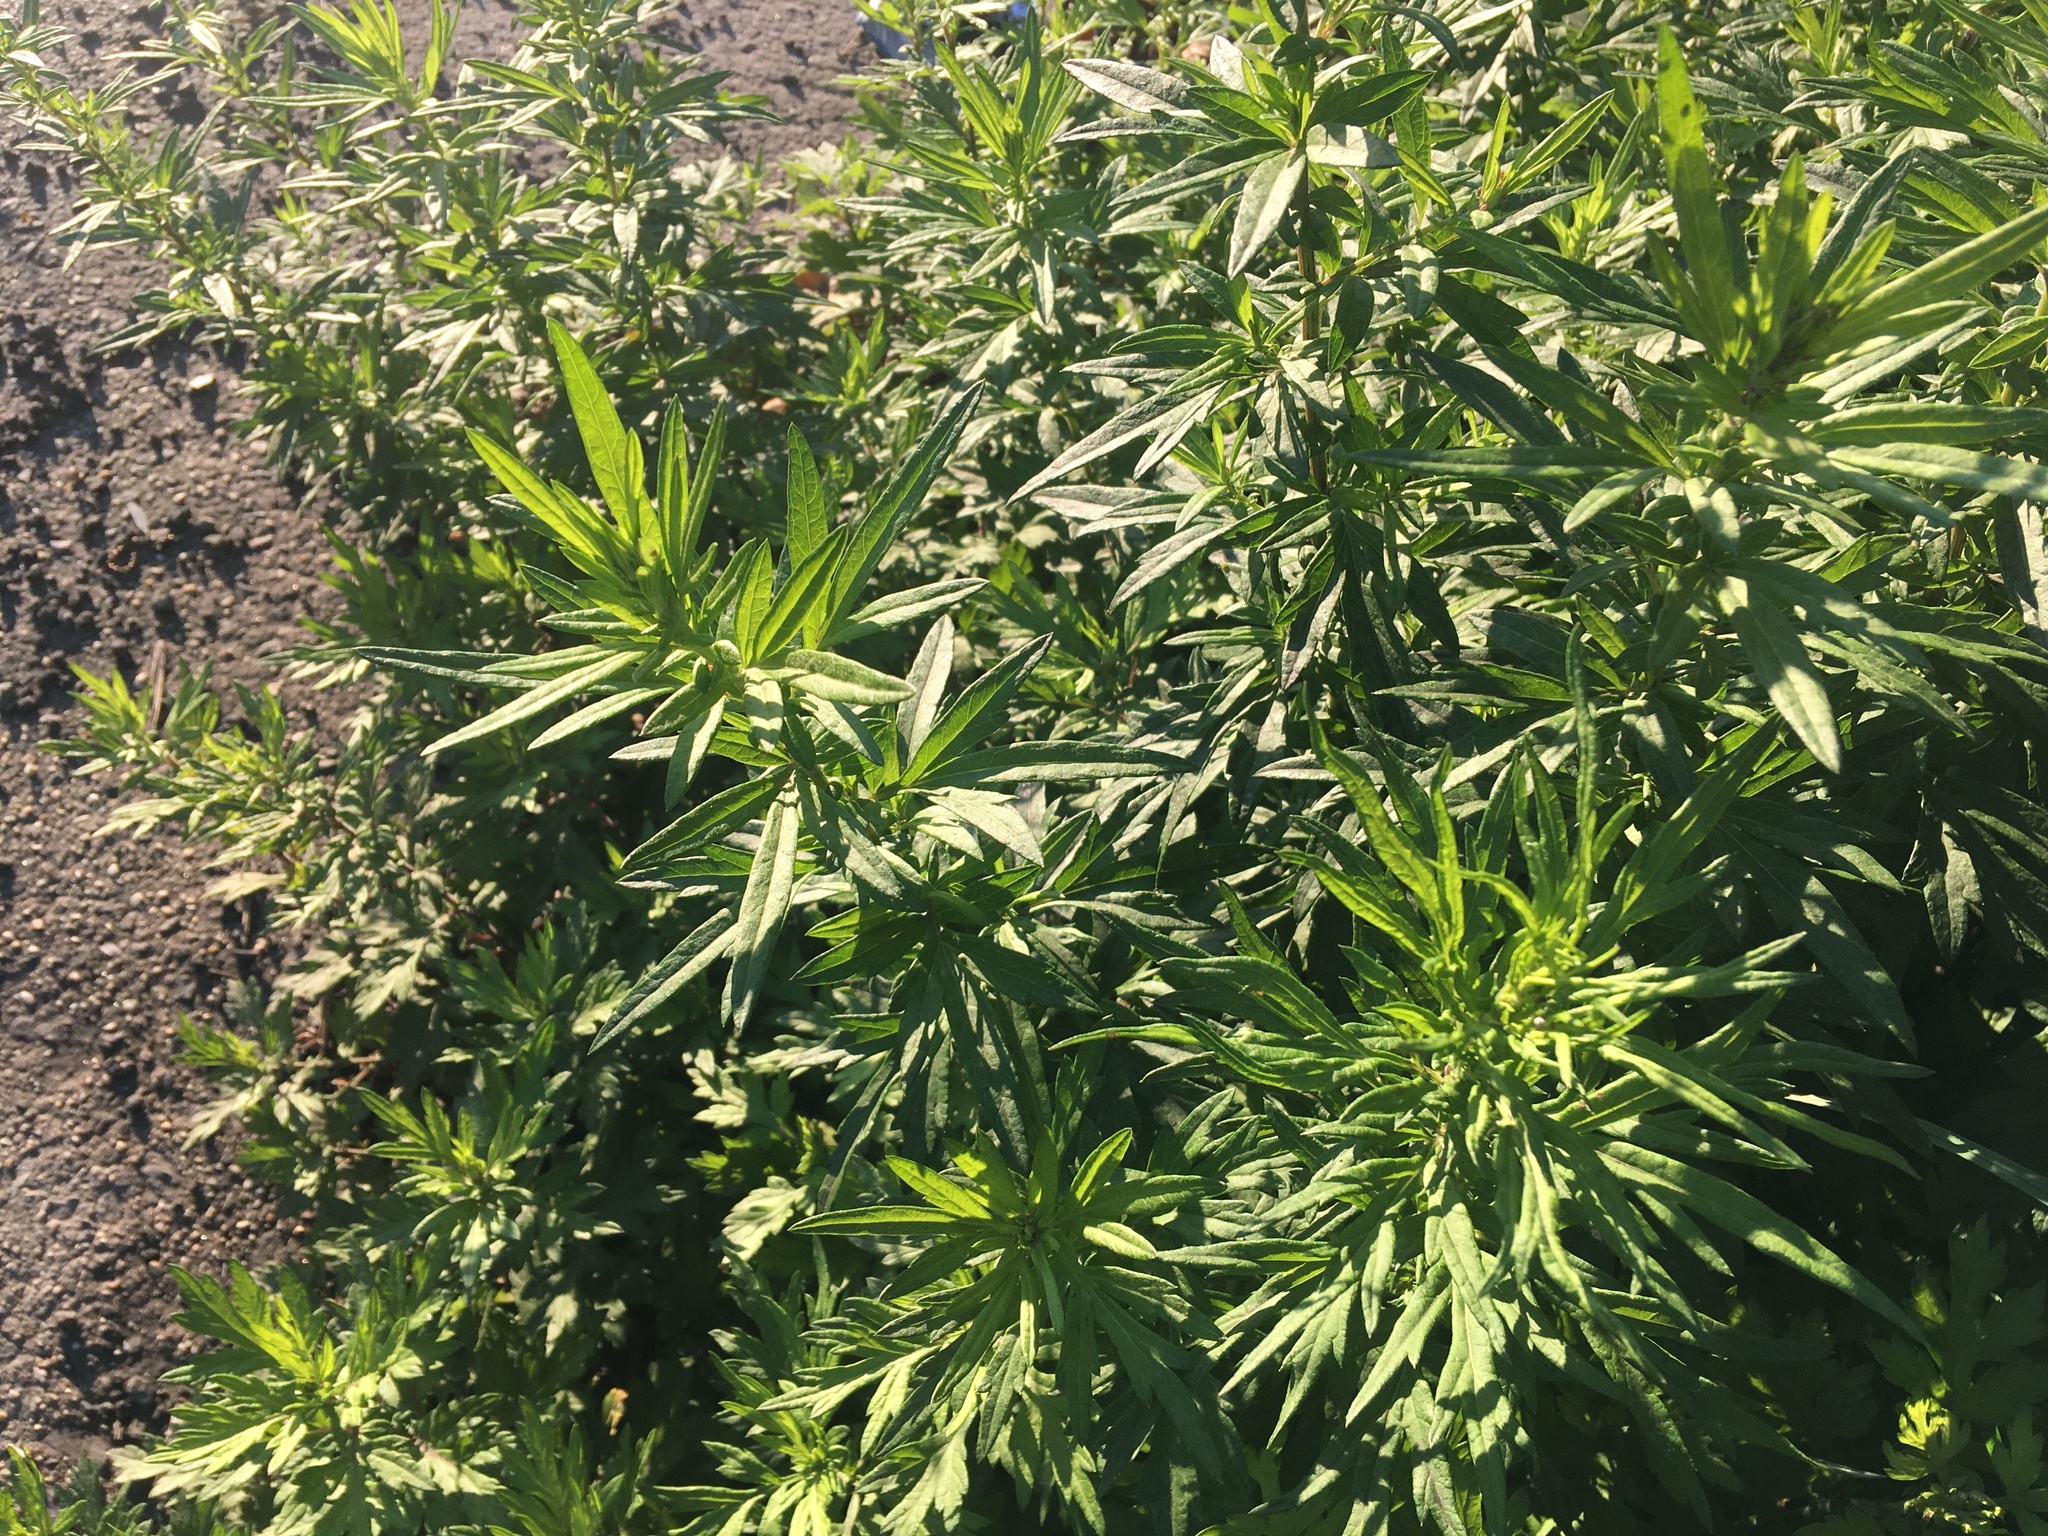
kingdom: Plantae
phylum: Tracheophyta
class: Magnoliopsida
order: Asterales
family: Asteraceae
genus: Artemisia
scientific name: Artemisia vulgaris
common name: Mugwort
